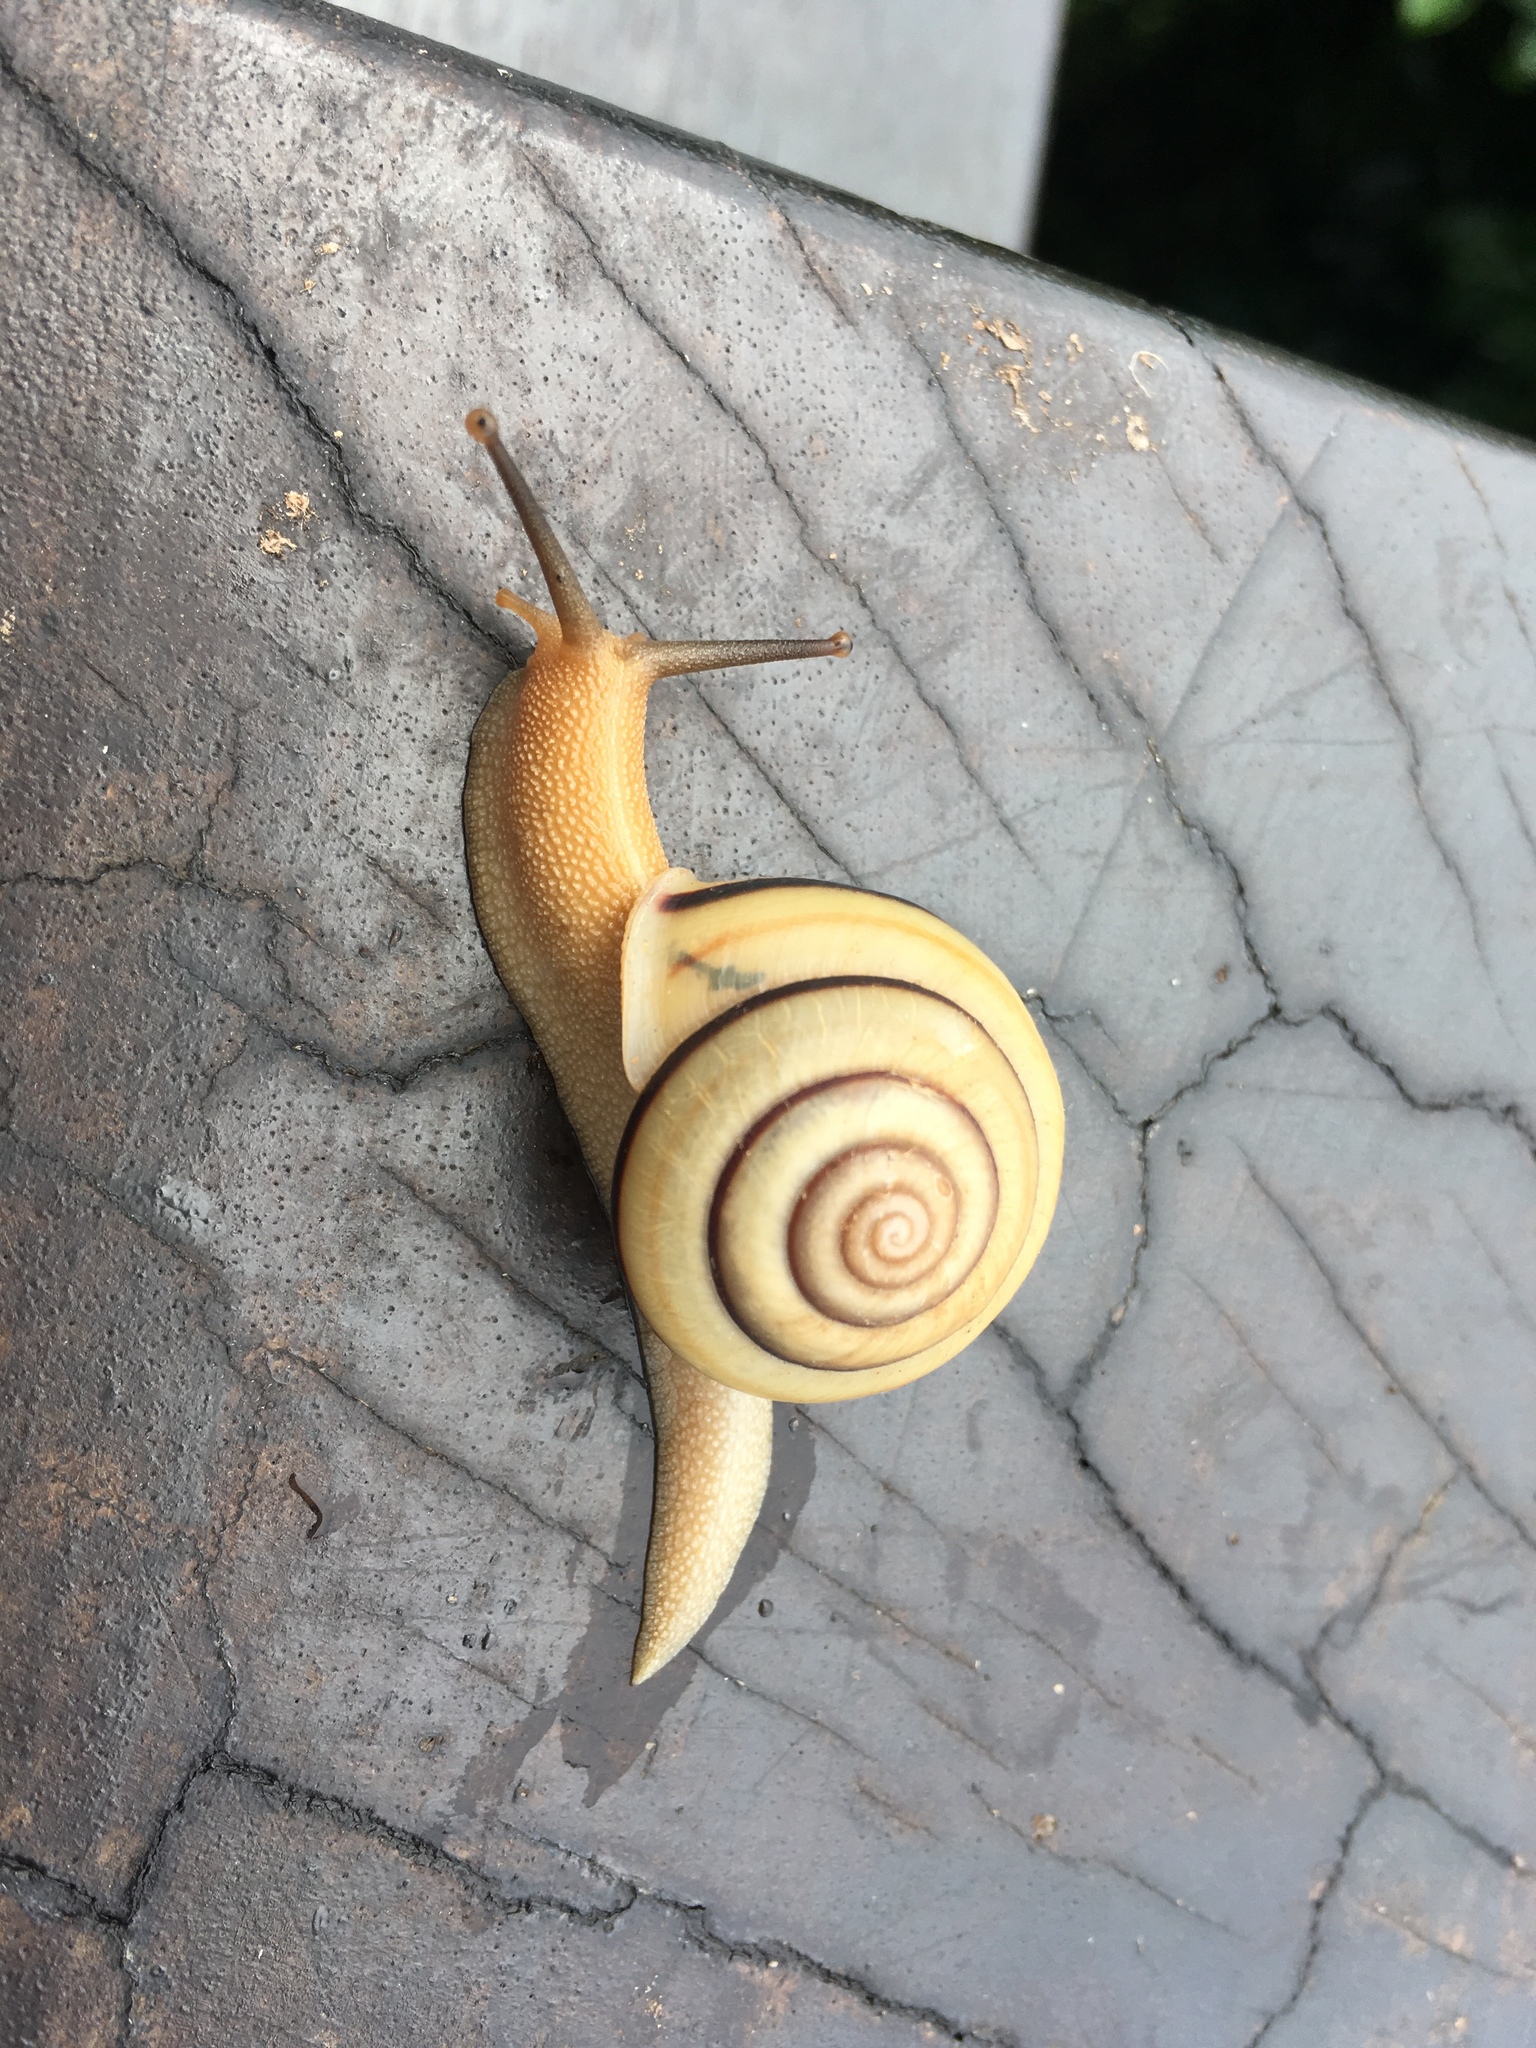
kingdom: Animalia
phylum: Mollusca
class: Gastropoda
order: Stylommatophora
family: Camaenidae
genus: Pancala
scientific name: Pancala batanica
